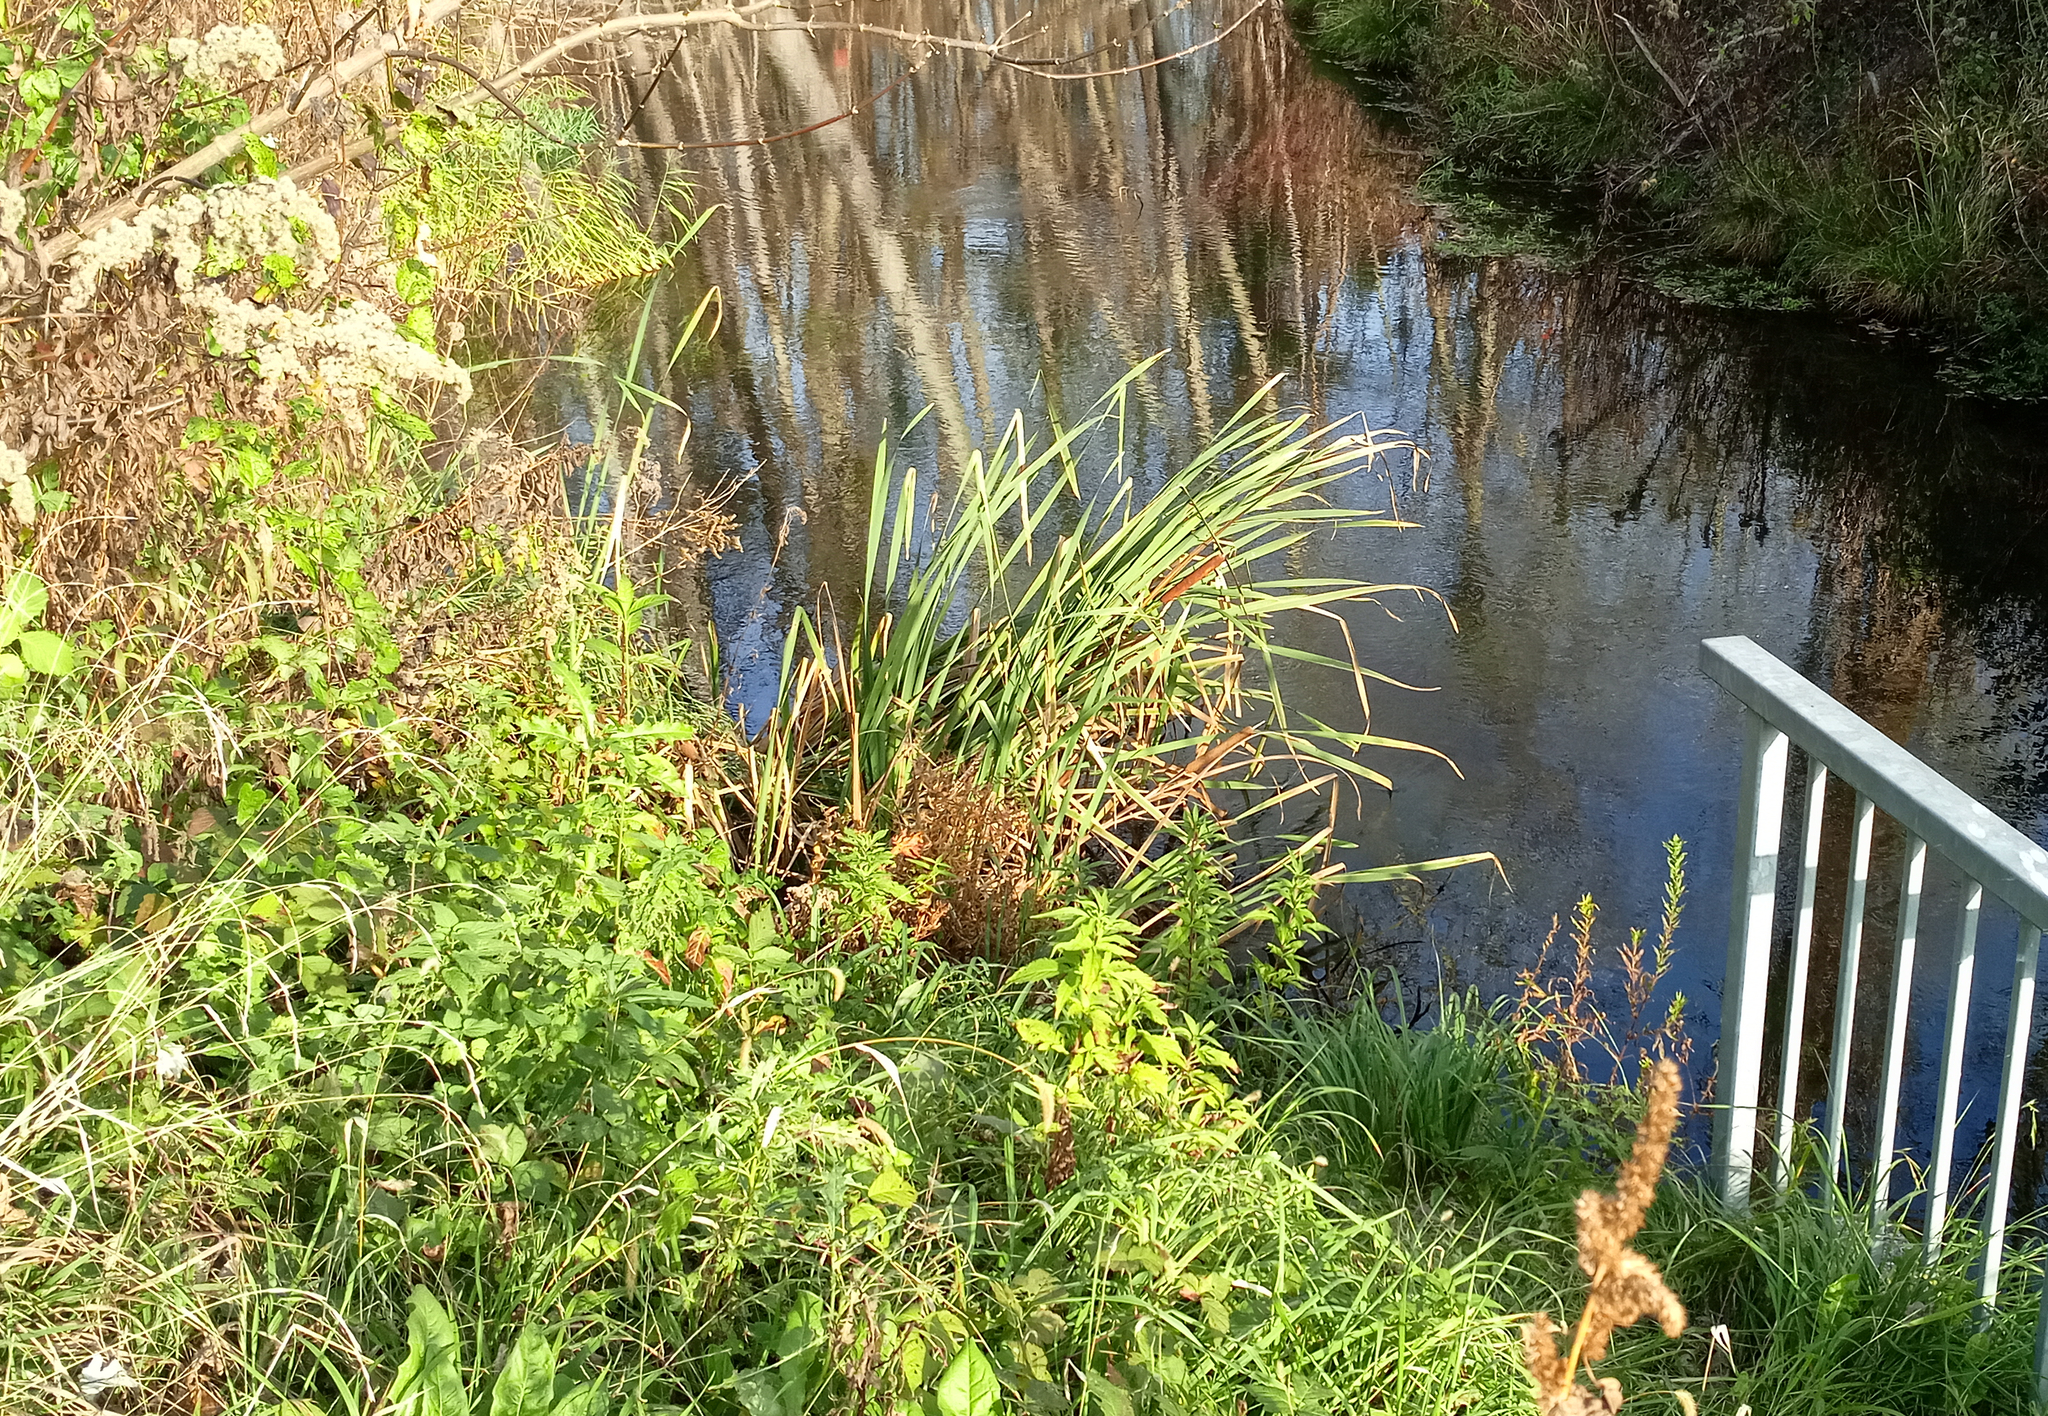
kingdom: Plantae
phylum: Tracheophyta
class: Liliopsida
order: Poales
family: Typhaceae
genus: Typha
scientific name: Typha latifolia
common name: Broadleaf cattail
